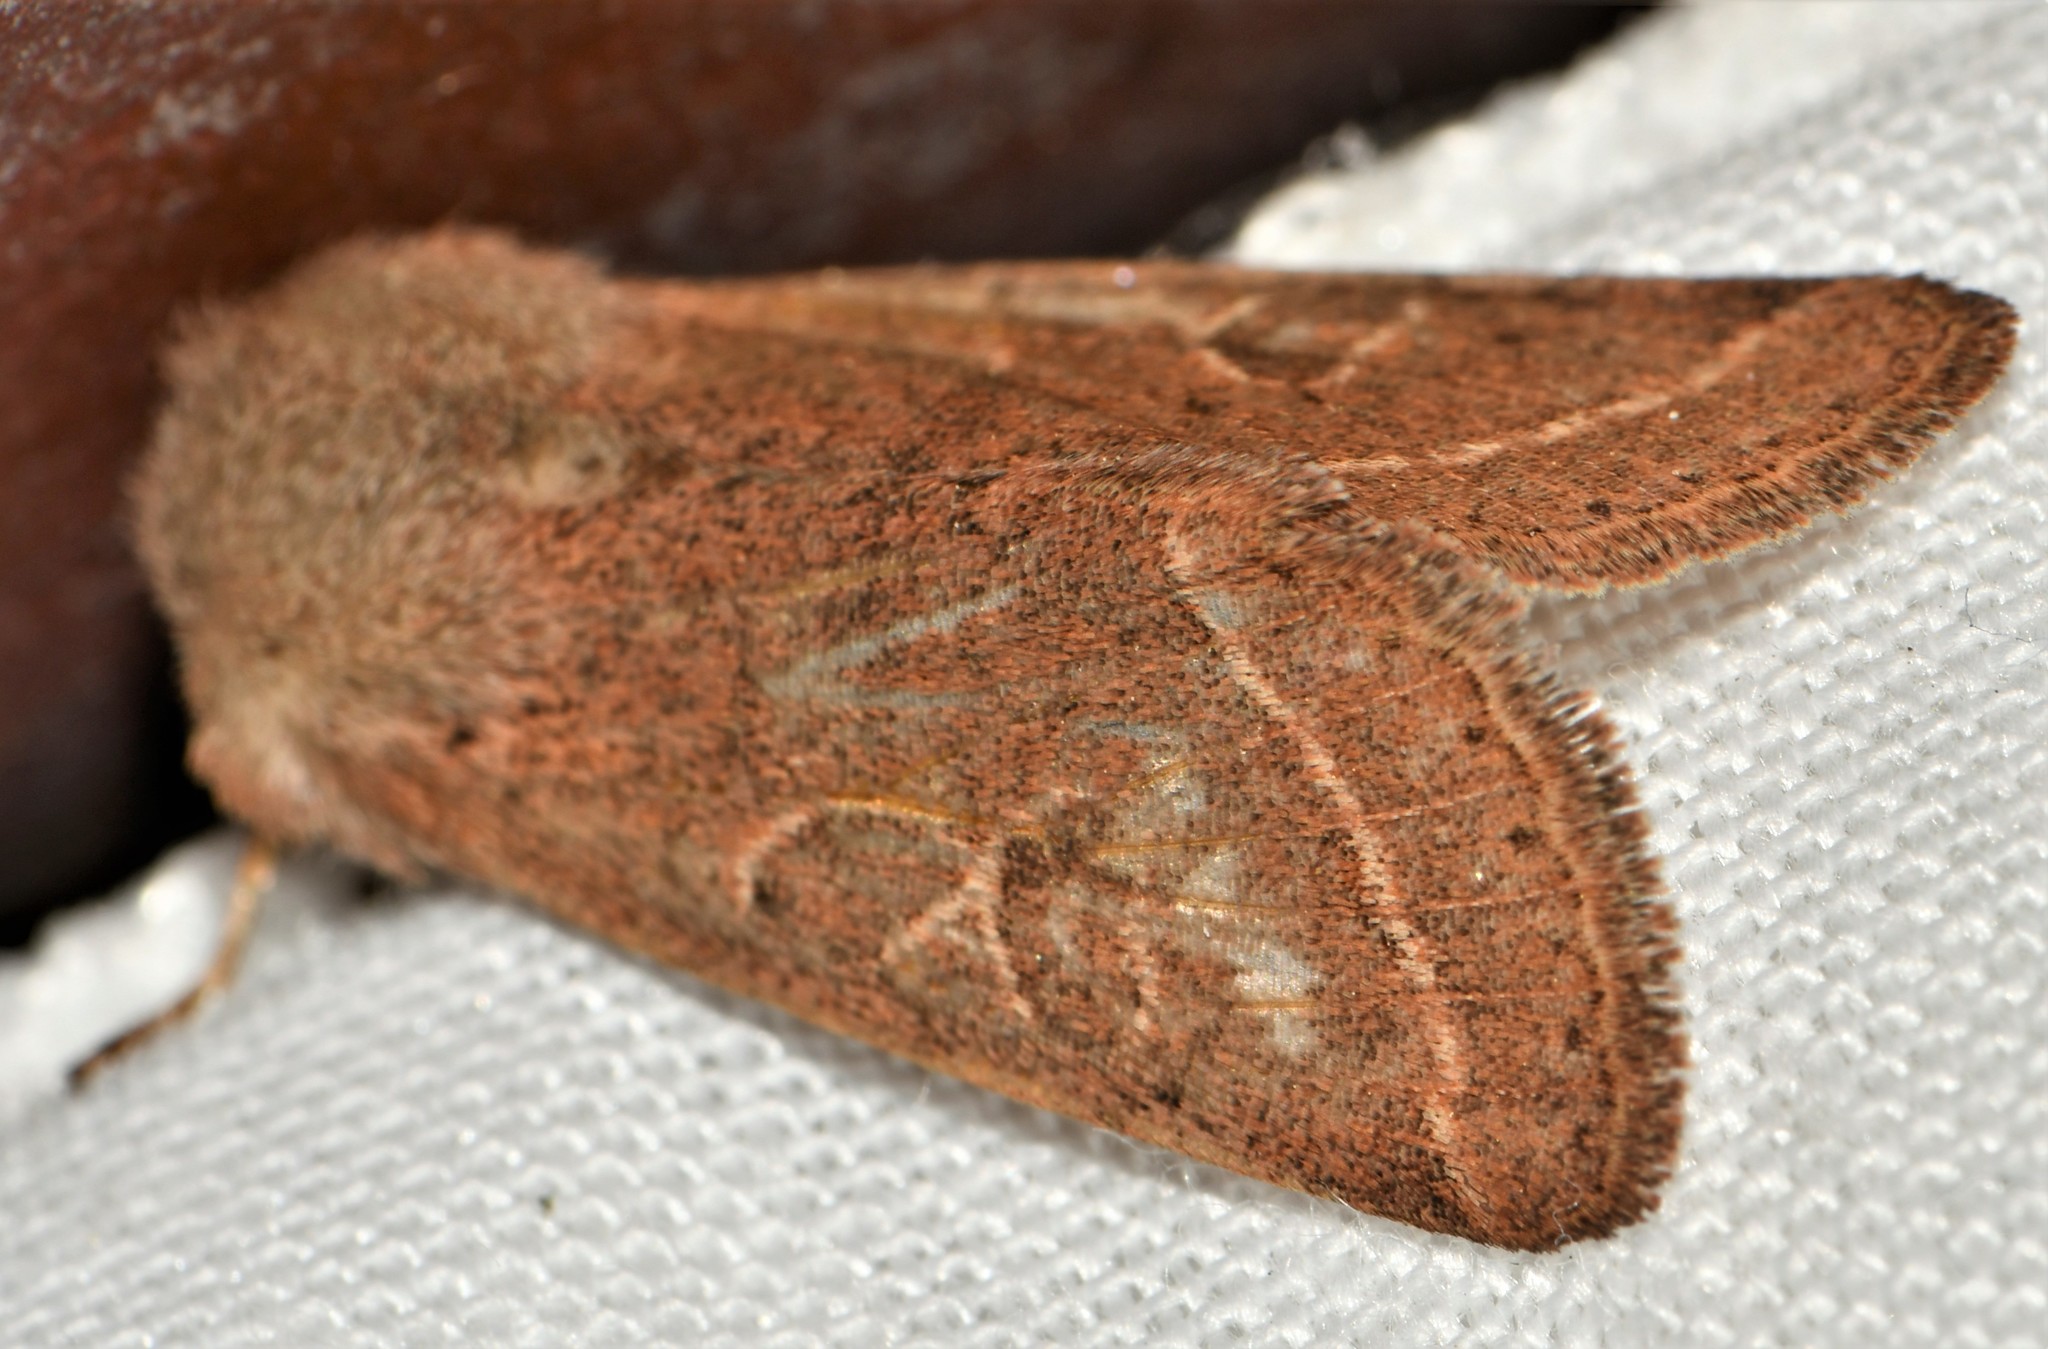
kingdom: Animalia
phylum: Arthropoda
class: Insecta
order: Lepidoptera
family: Noctuidae
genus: Orthosia
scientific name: Orthosia cerasi
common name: Common quaker
